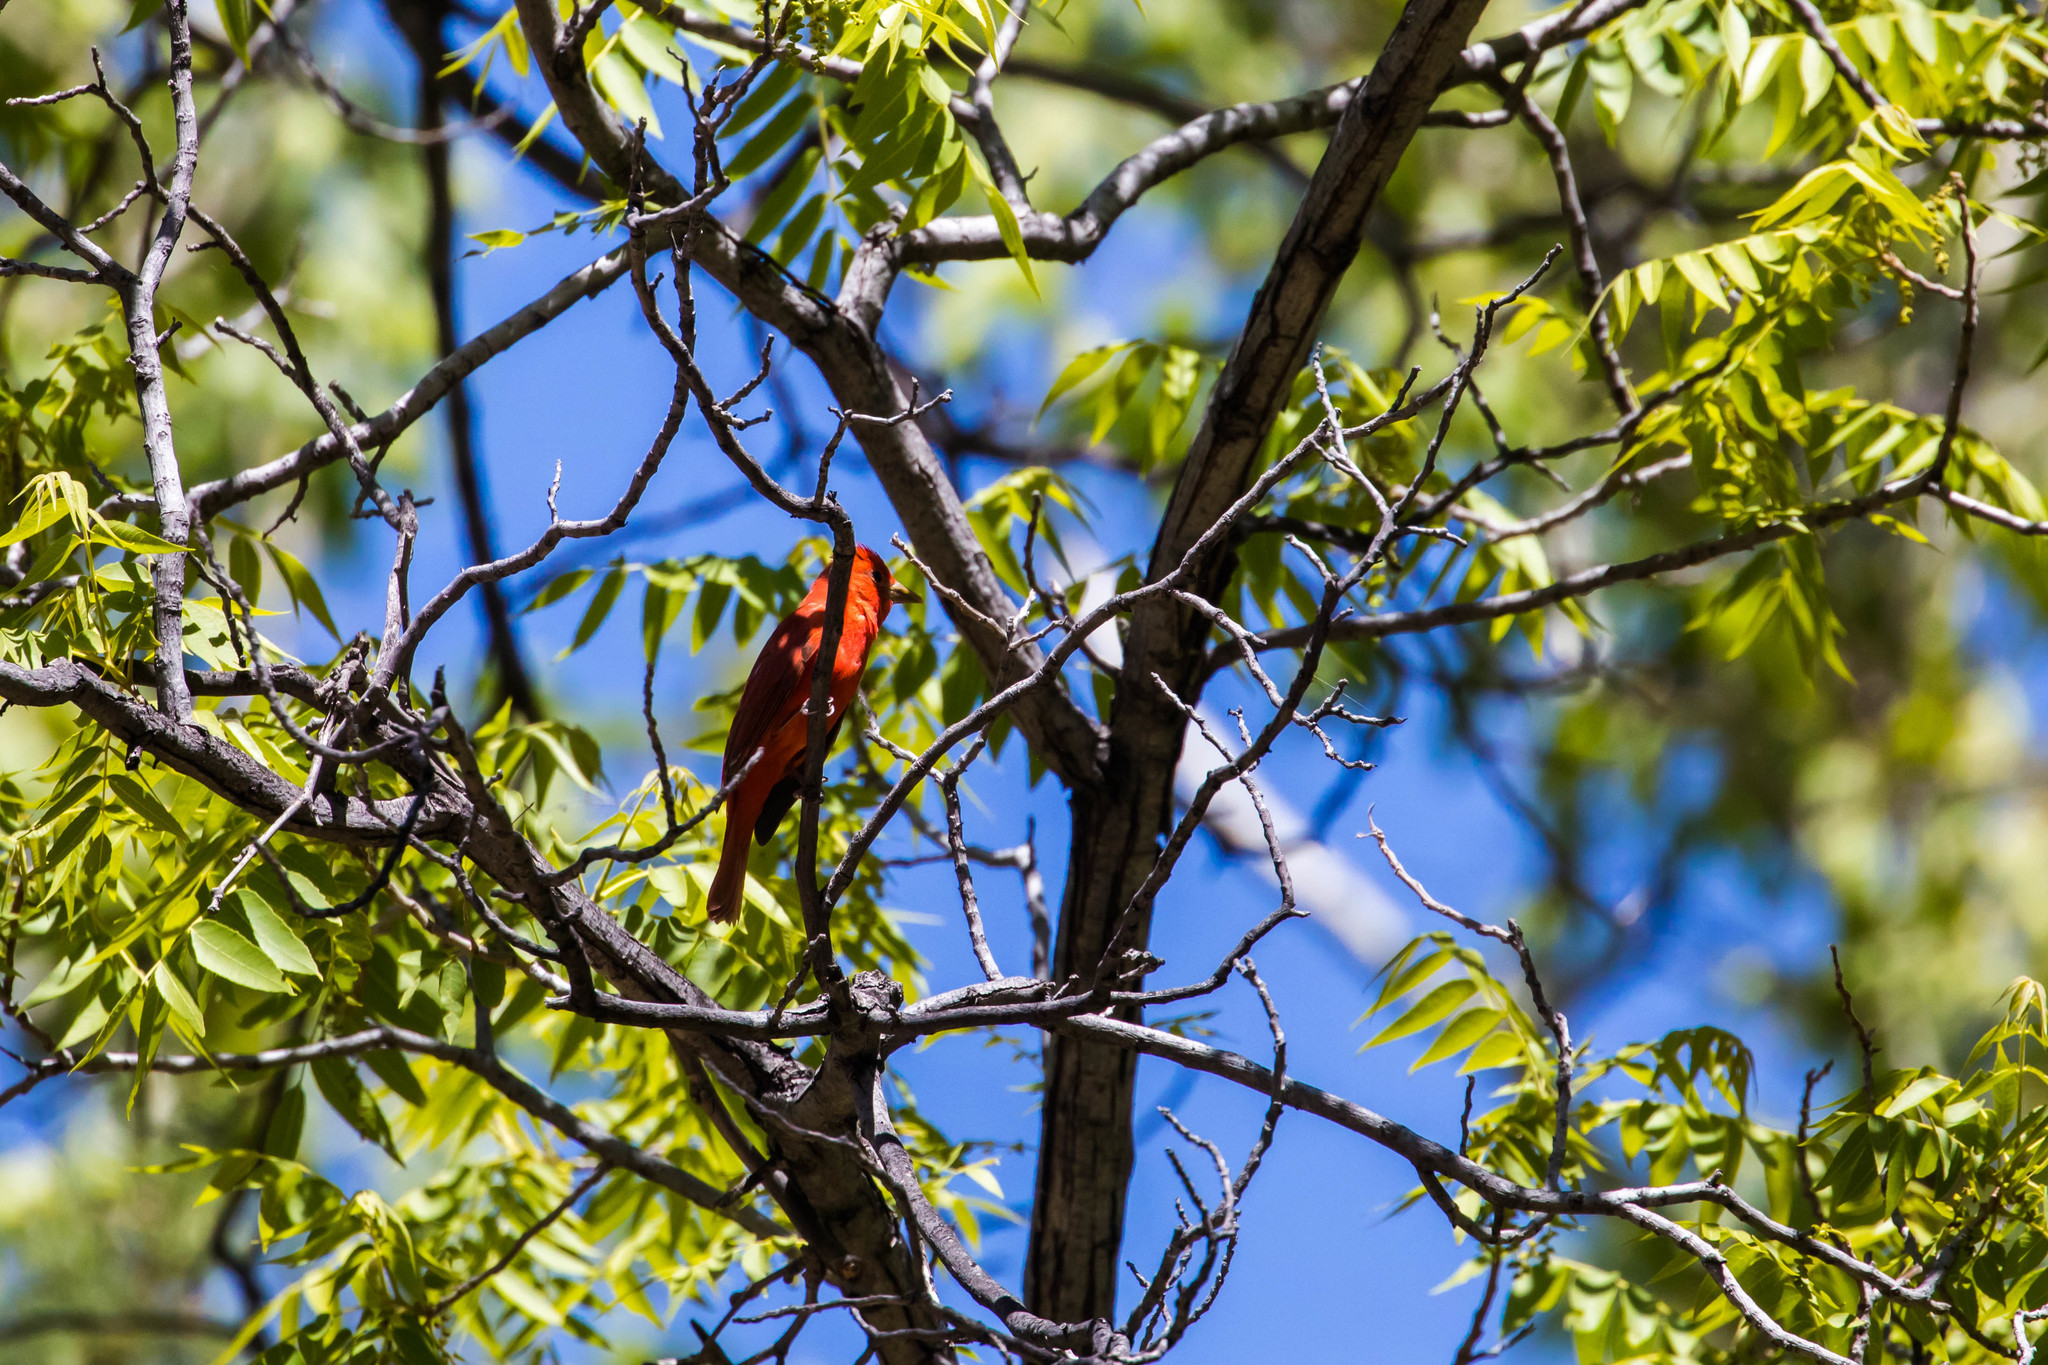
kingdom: Animalia
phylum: Chordata
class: Aves
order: Passeriformes
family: Cardinalidae
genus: Piranga
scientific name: Piranga rubra
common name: Summer tanager
